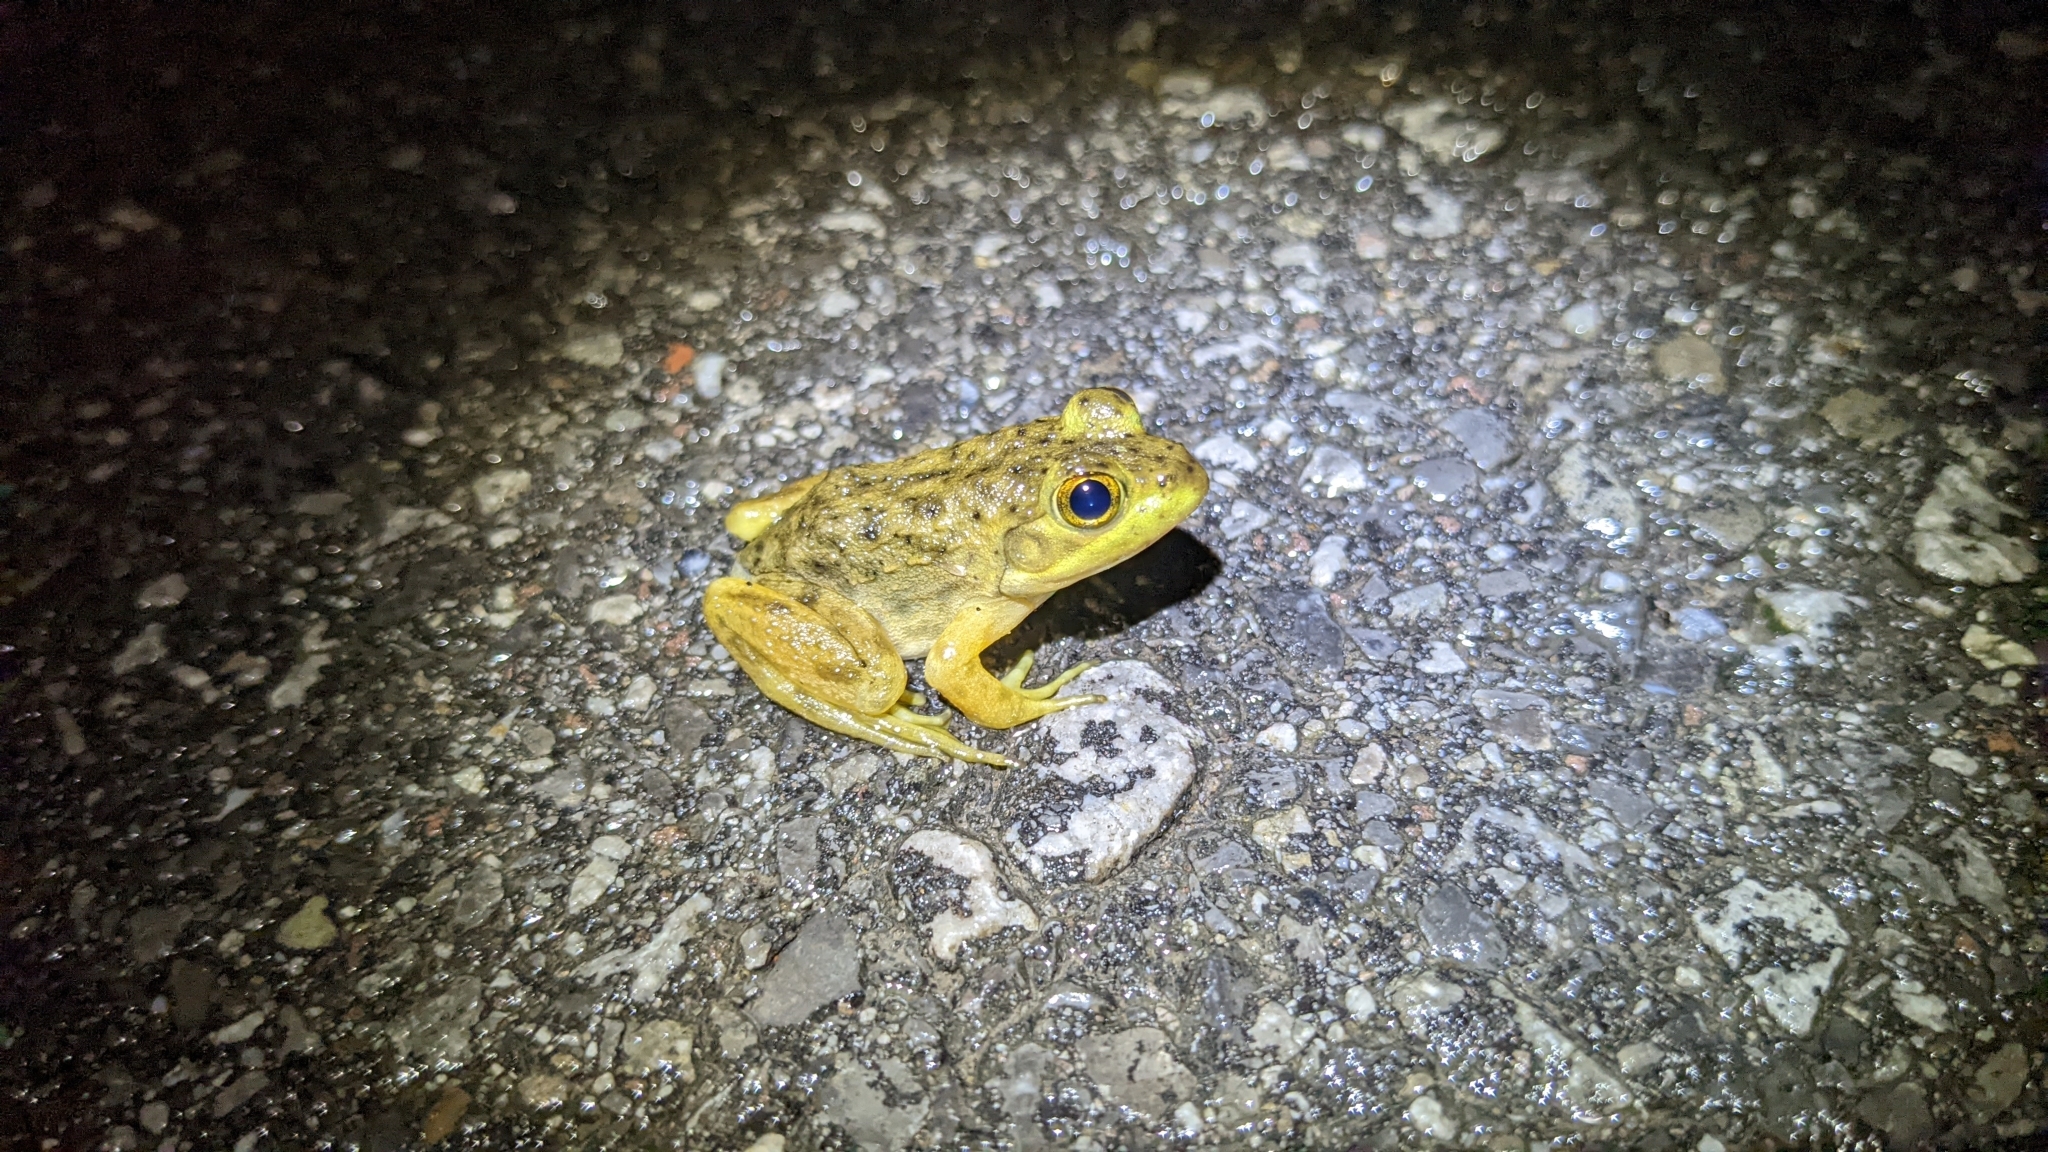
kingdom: Animalia
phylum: Chordata
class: Amphibia
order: Anura
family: Ranidae
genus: Lithobates
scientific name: Lithobates catesbeianus
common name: American bullfrog
